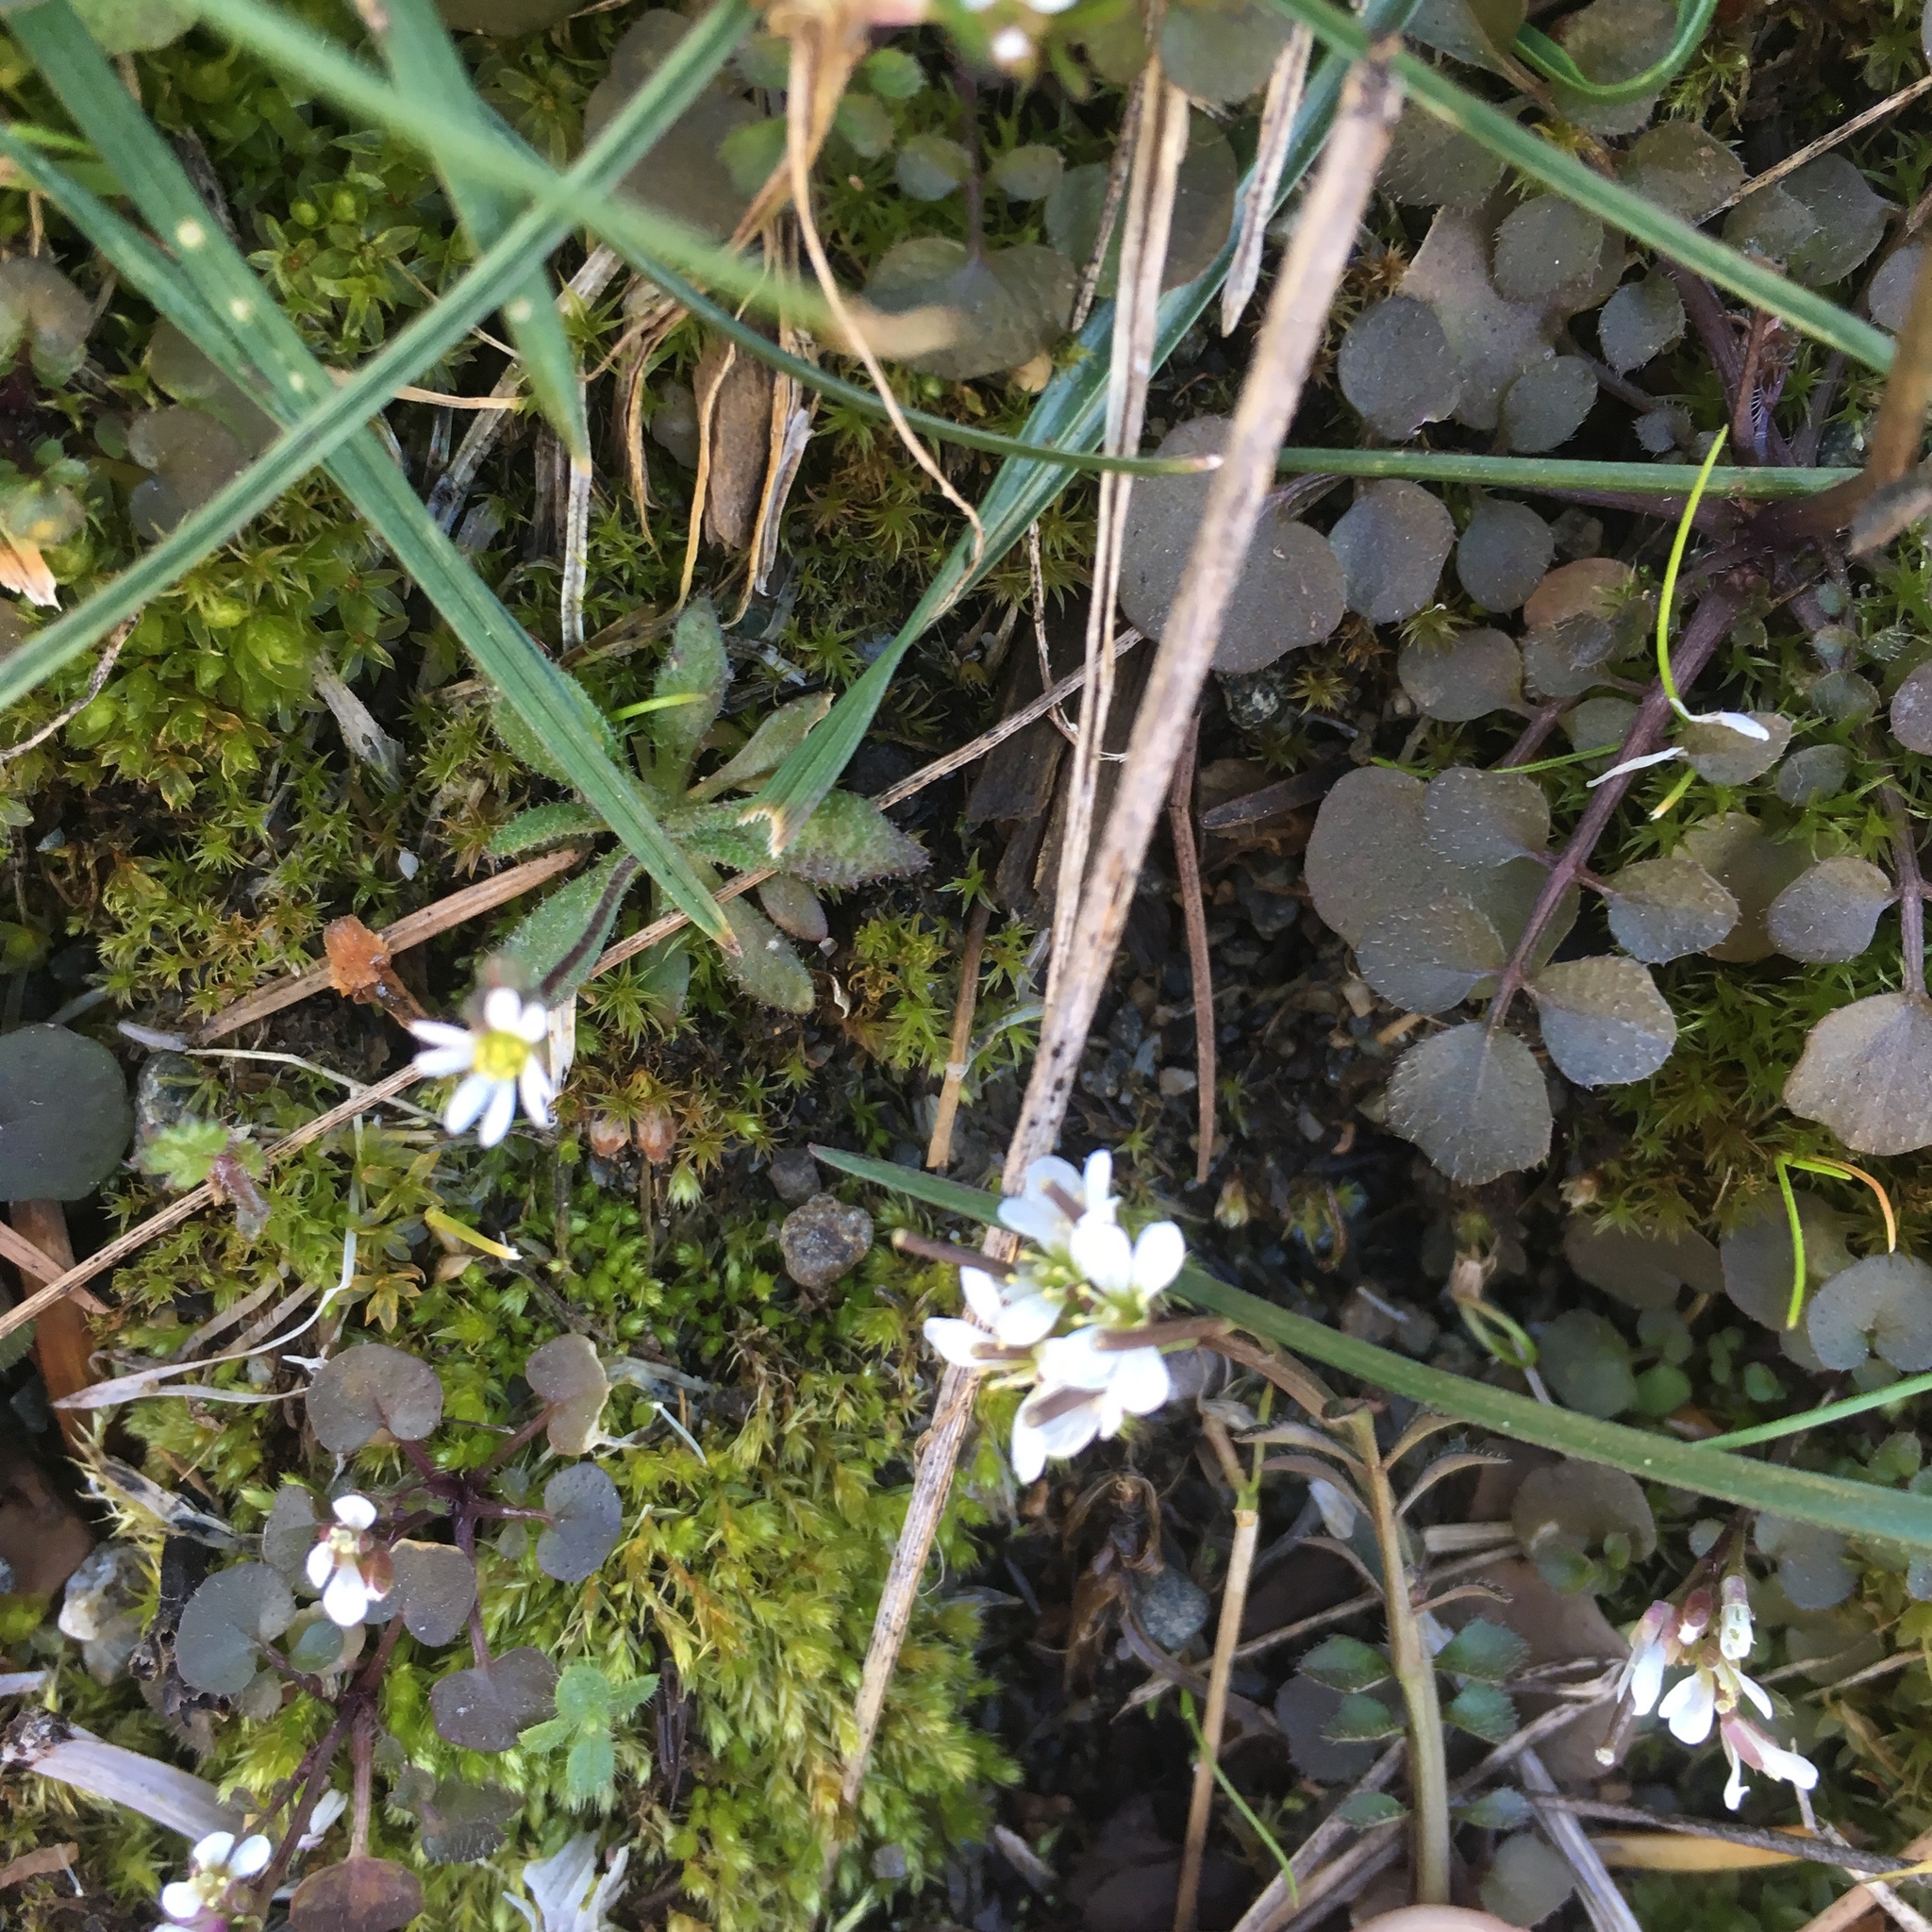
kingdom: Plantae
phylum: Tracheophyta
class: Magnoliopsida
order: Brassicales
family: Brassicaceae
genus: Cardamine
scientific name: Cardamine hirsuta
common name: Hairy bittercress
